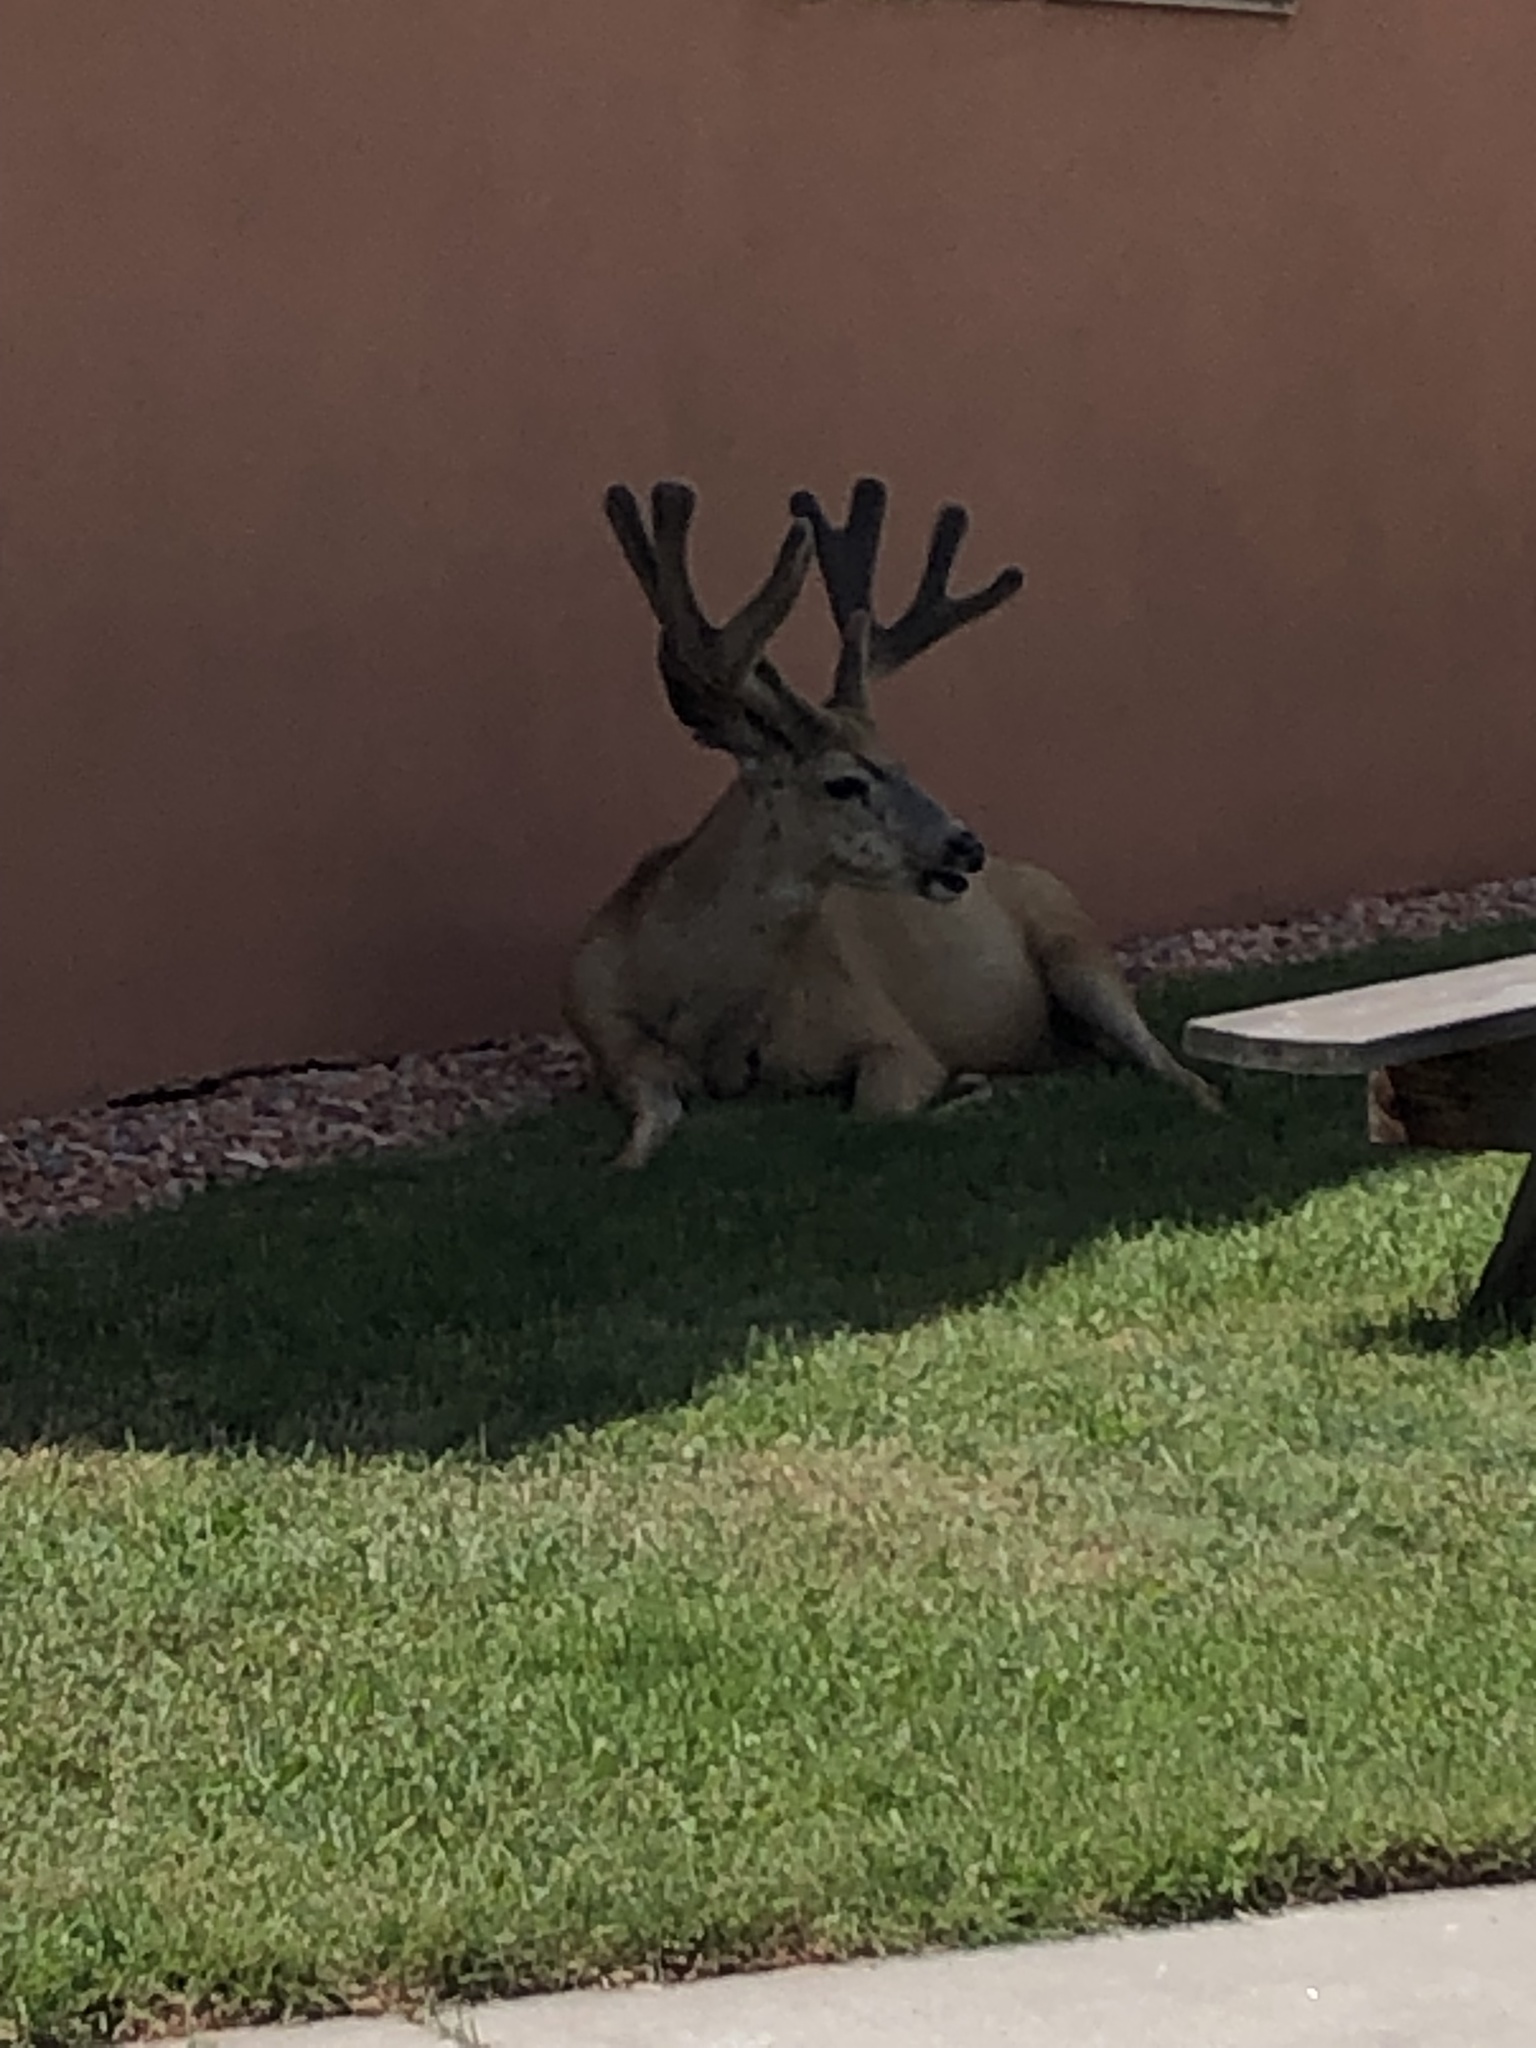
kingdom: Animalia
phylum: Chordata
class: Mammalia
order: Artiodactyla
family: Cervidae
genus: Odocoileus
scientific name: Odocoileus hemionus
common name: Mule deer
